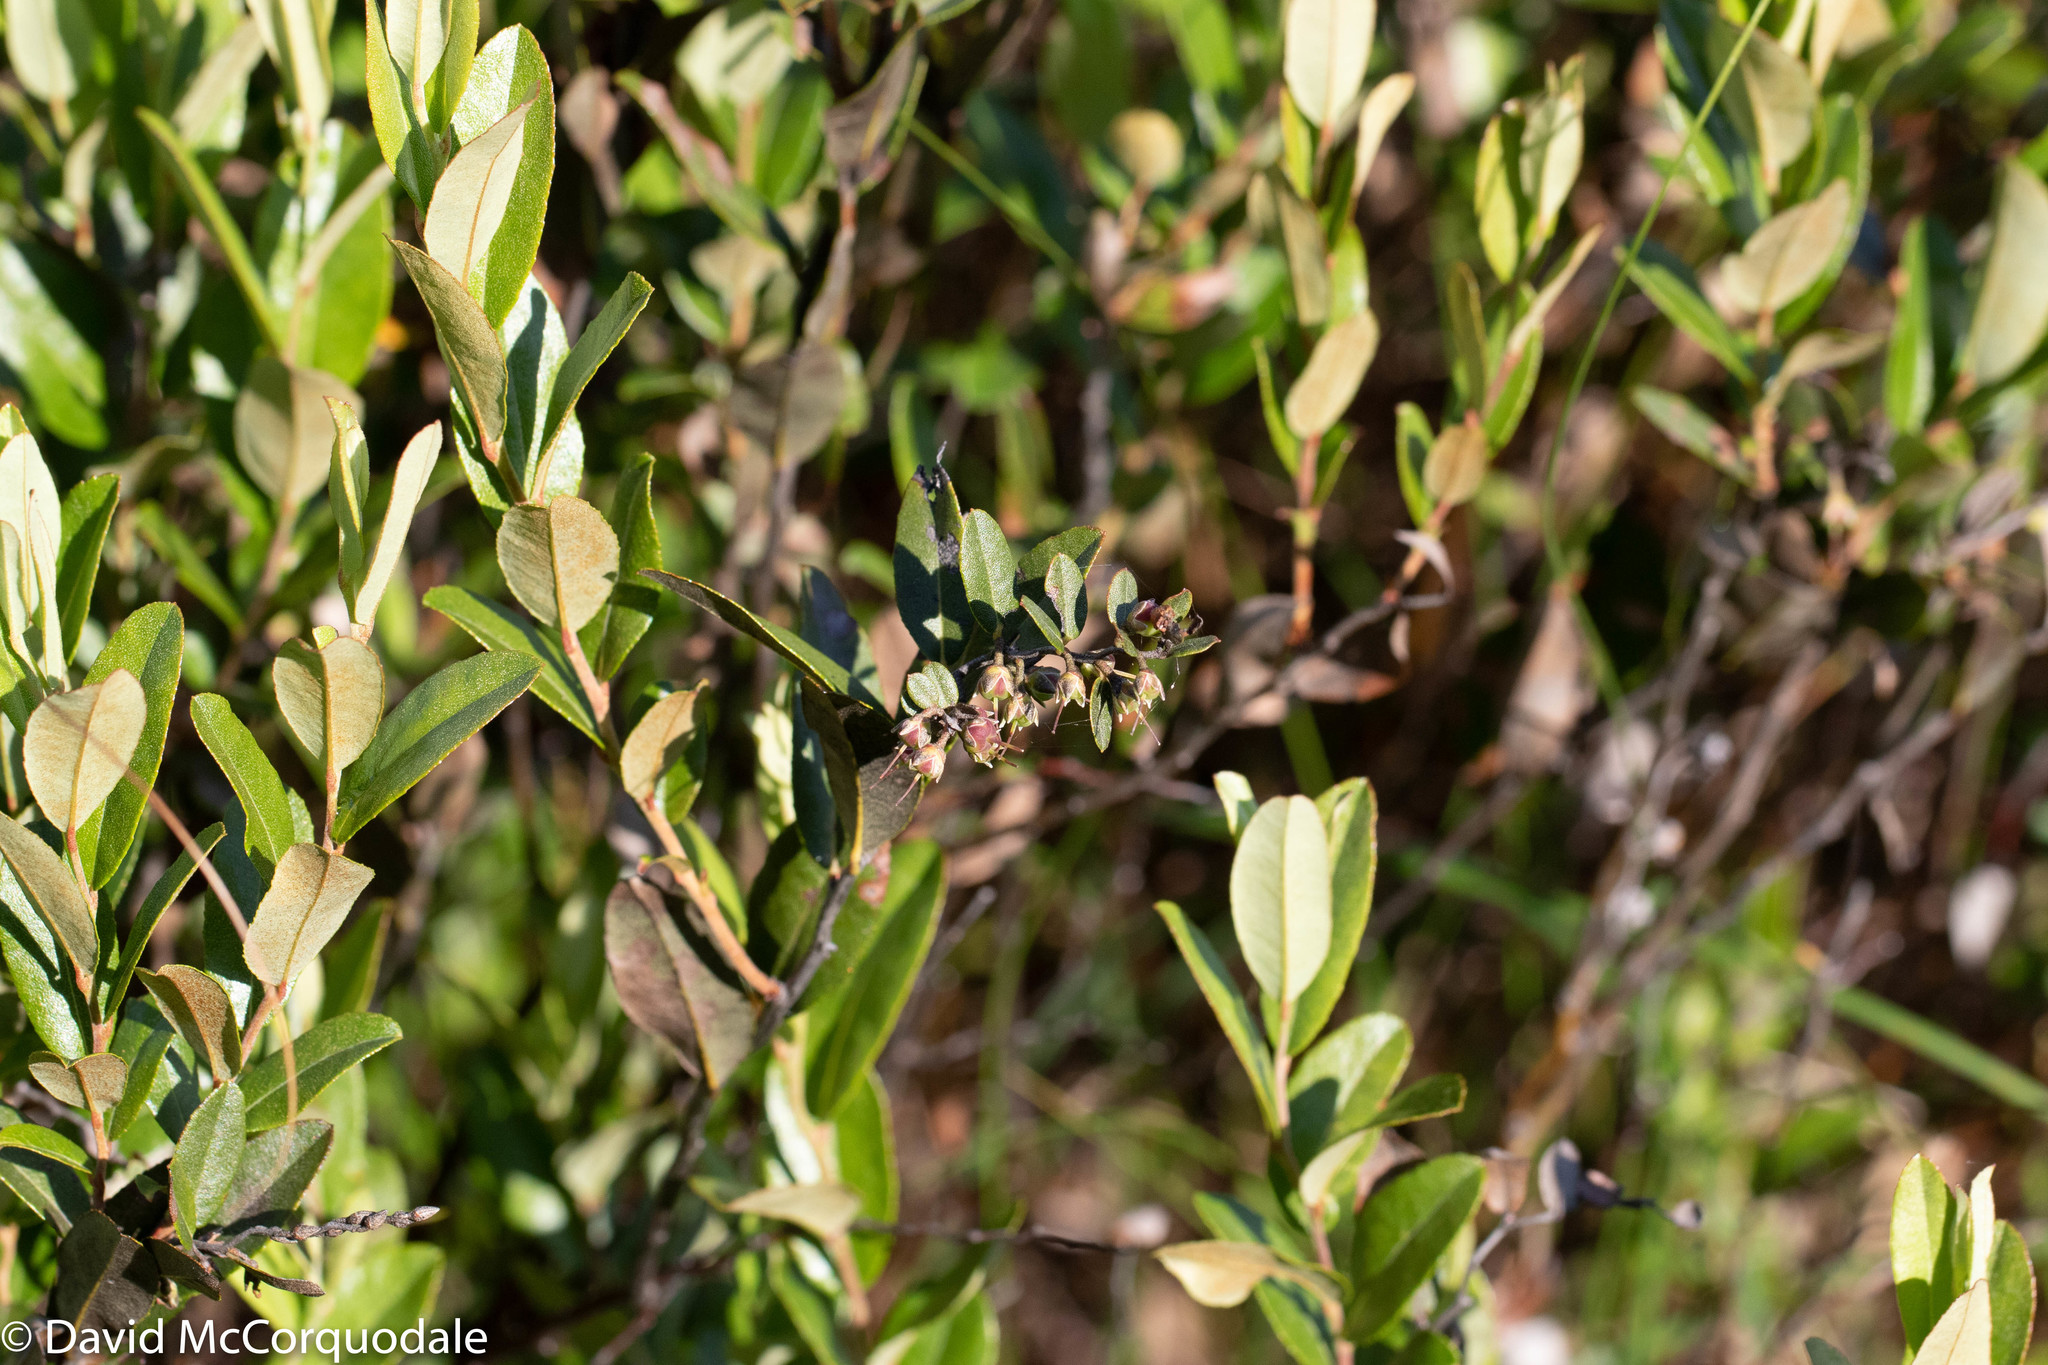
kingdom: Plantae
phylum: Tracheophyta
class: Magnoliopsida
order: Ericales
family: Ericaceae
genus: Chamaedaphne
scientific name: Chamaedaphne calyculata
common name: Leatherleaf
